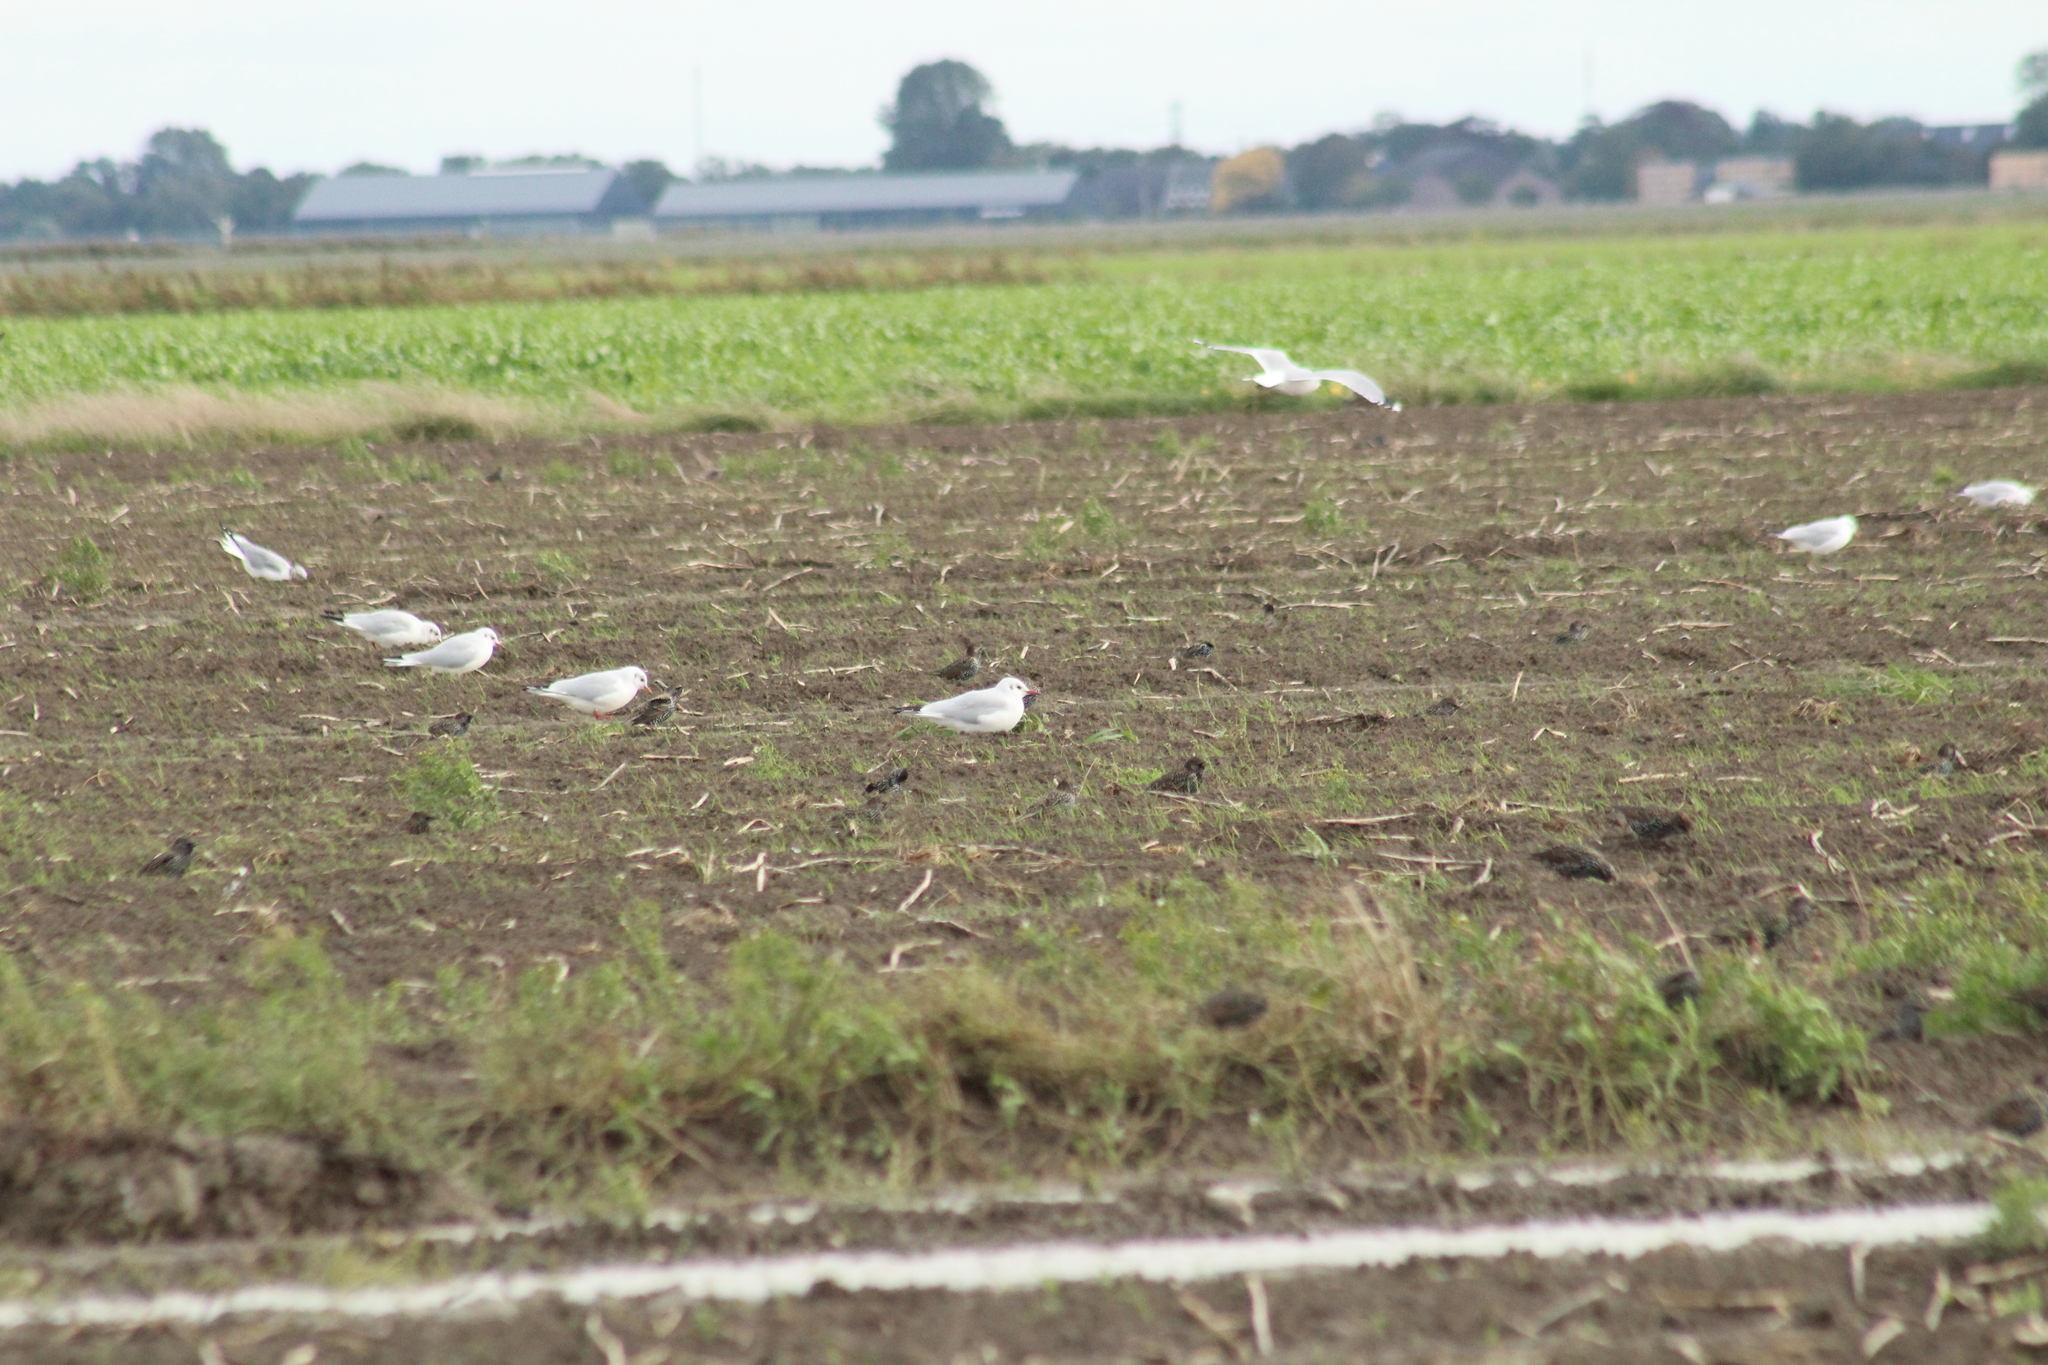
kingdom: Animalia
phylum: Chordata
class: Aves
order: Charadriiformes
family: Laridae
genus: Chroicocephalus
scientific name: Chroicocephalus ridibundus
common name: Black-headed gull
